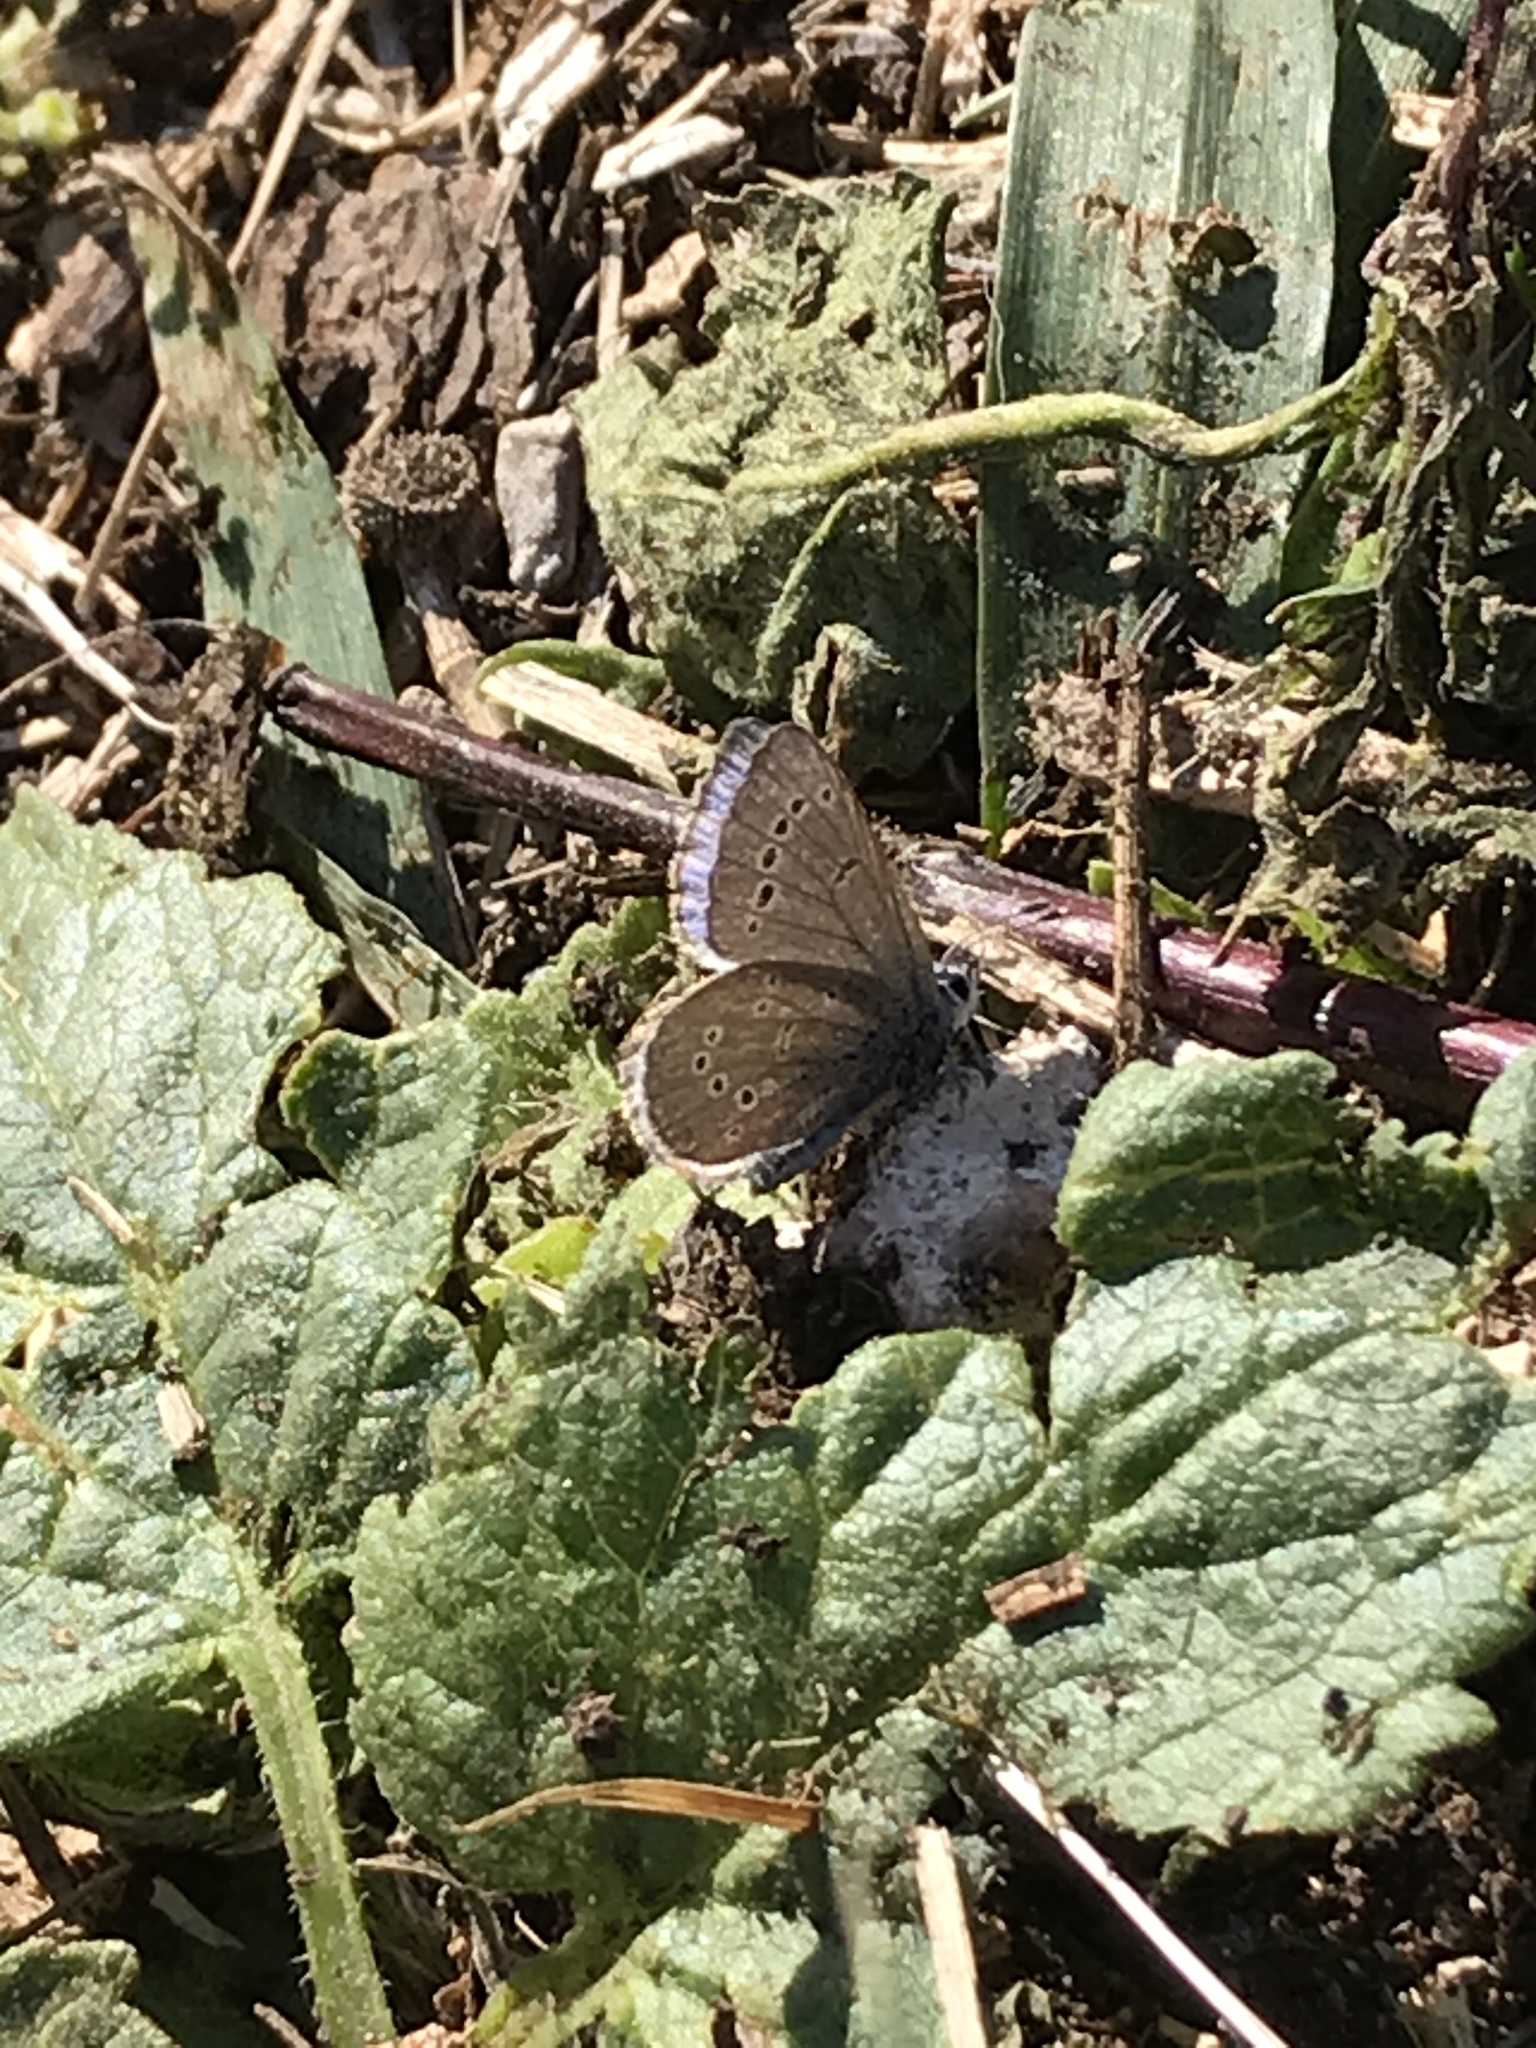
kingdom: Animalia
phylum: Arthropoda
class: Insecta
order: Lepidoptera
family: Lycaenidae
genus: Glaucopsyche
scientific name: Glaucopsyche lygdamus
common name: Silvery blue
